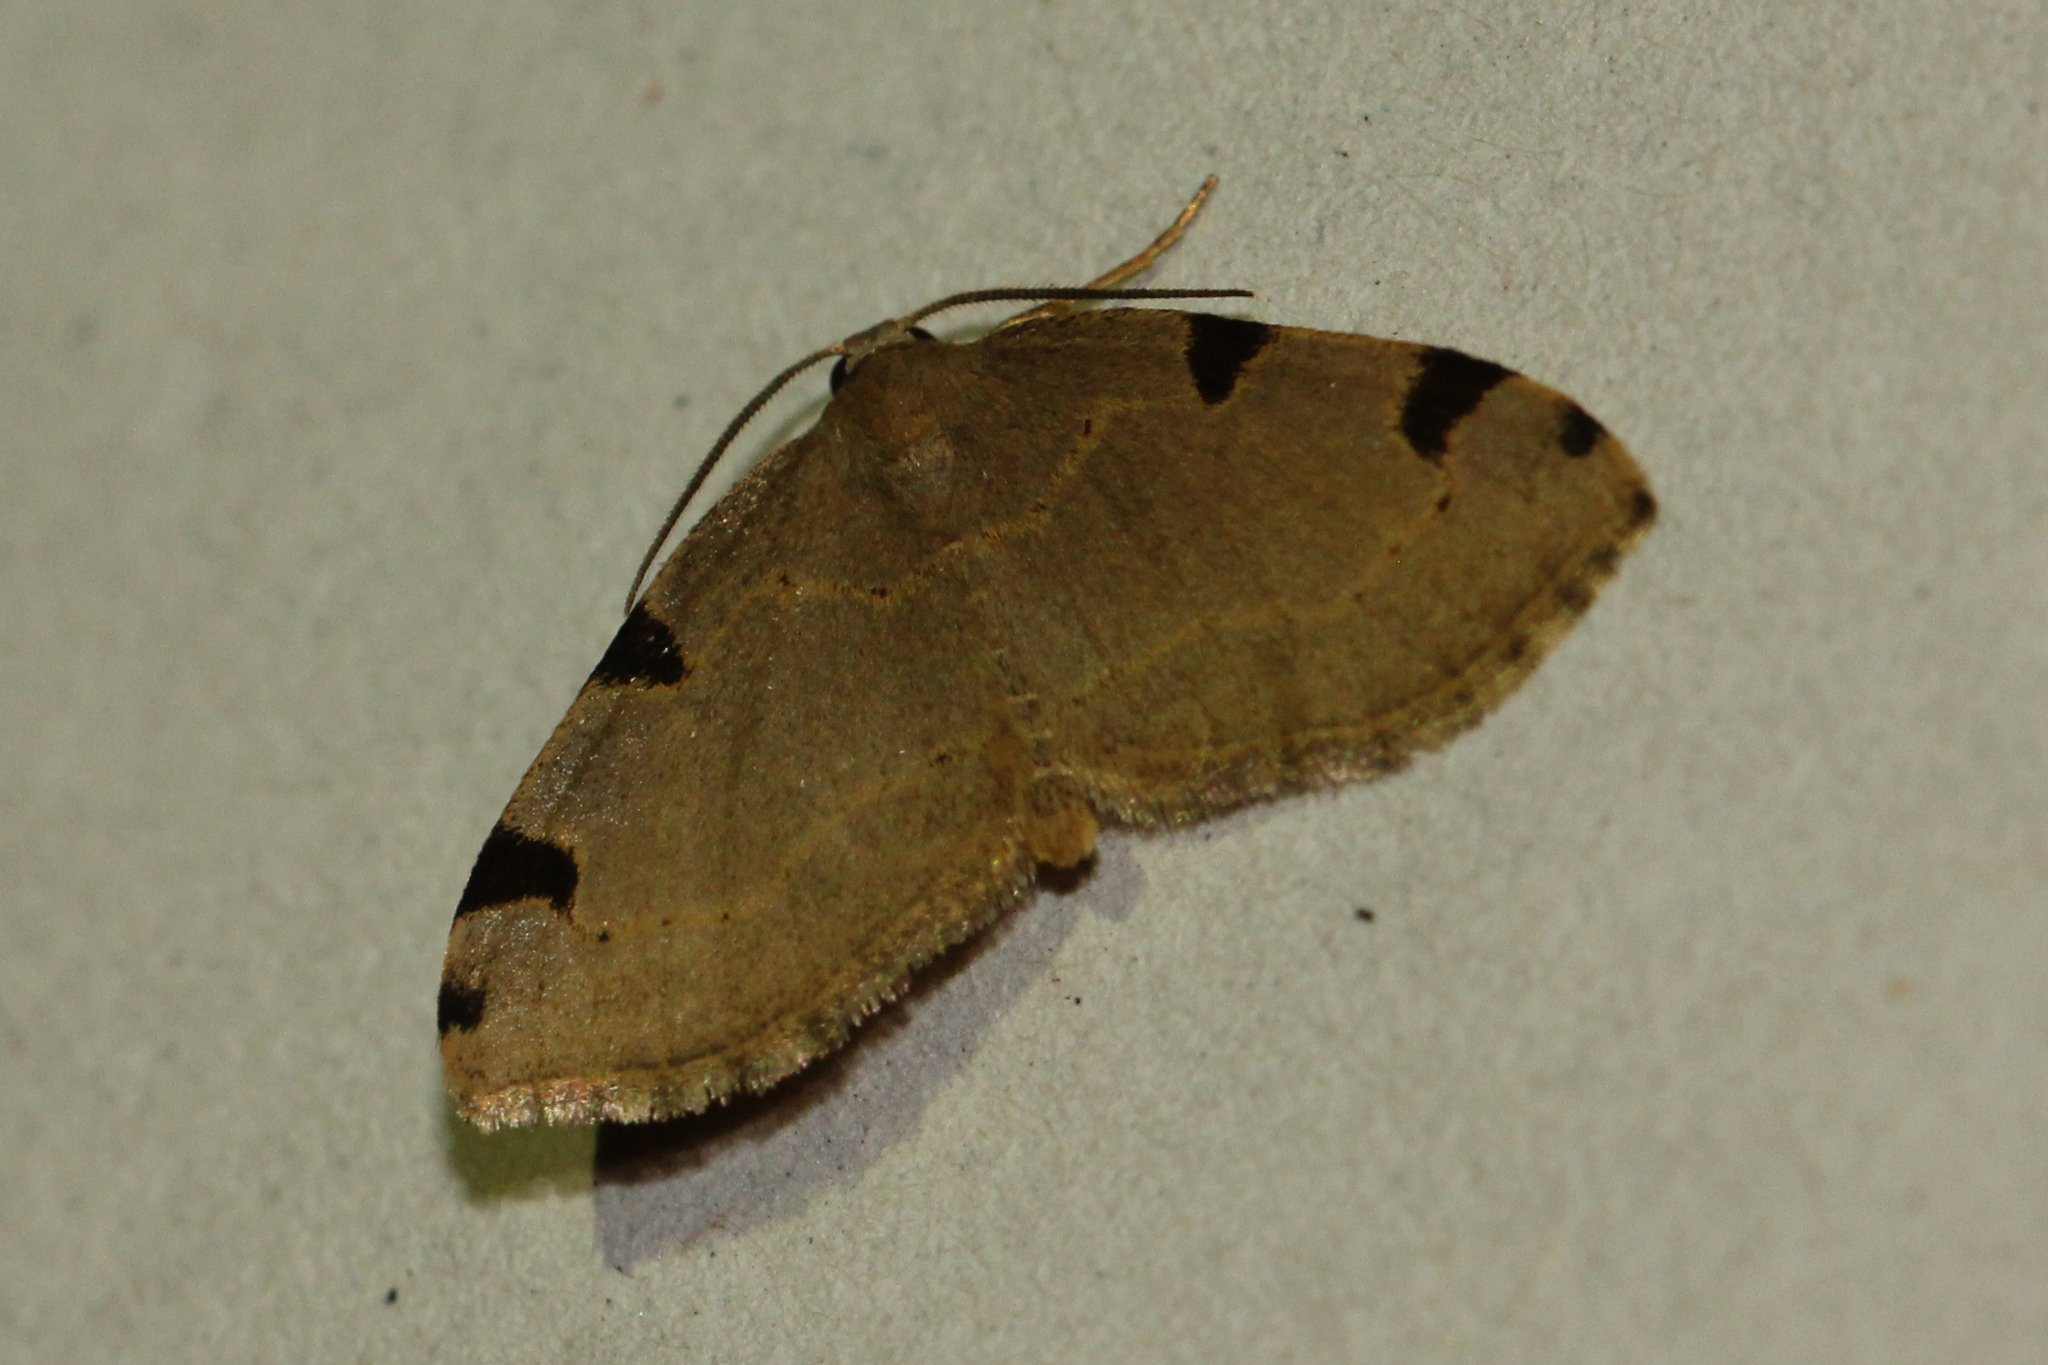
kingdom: Animalia
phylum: Arthropoda
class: Insecta
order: Lepidoptera
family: Geometridae
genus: Heterophleps
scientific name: Heterophleps triguttaria
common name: Three-spotted fillip
